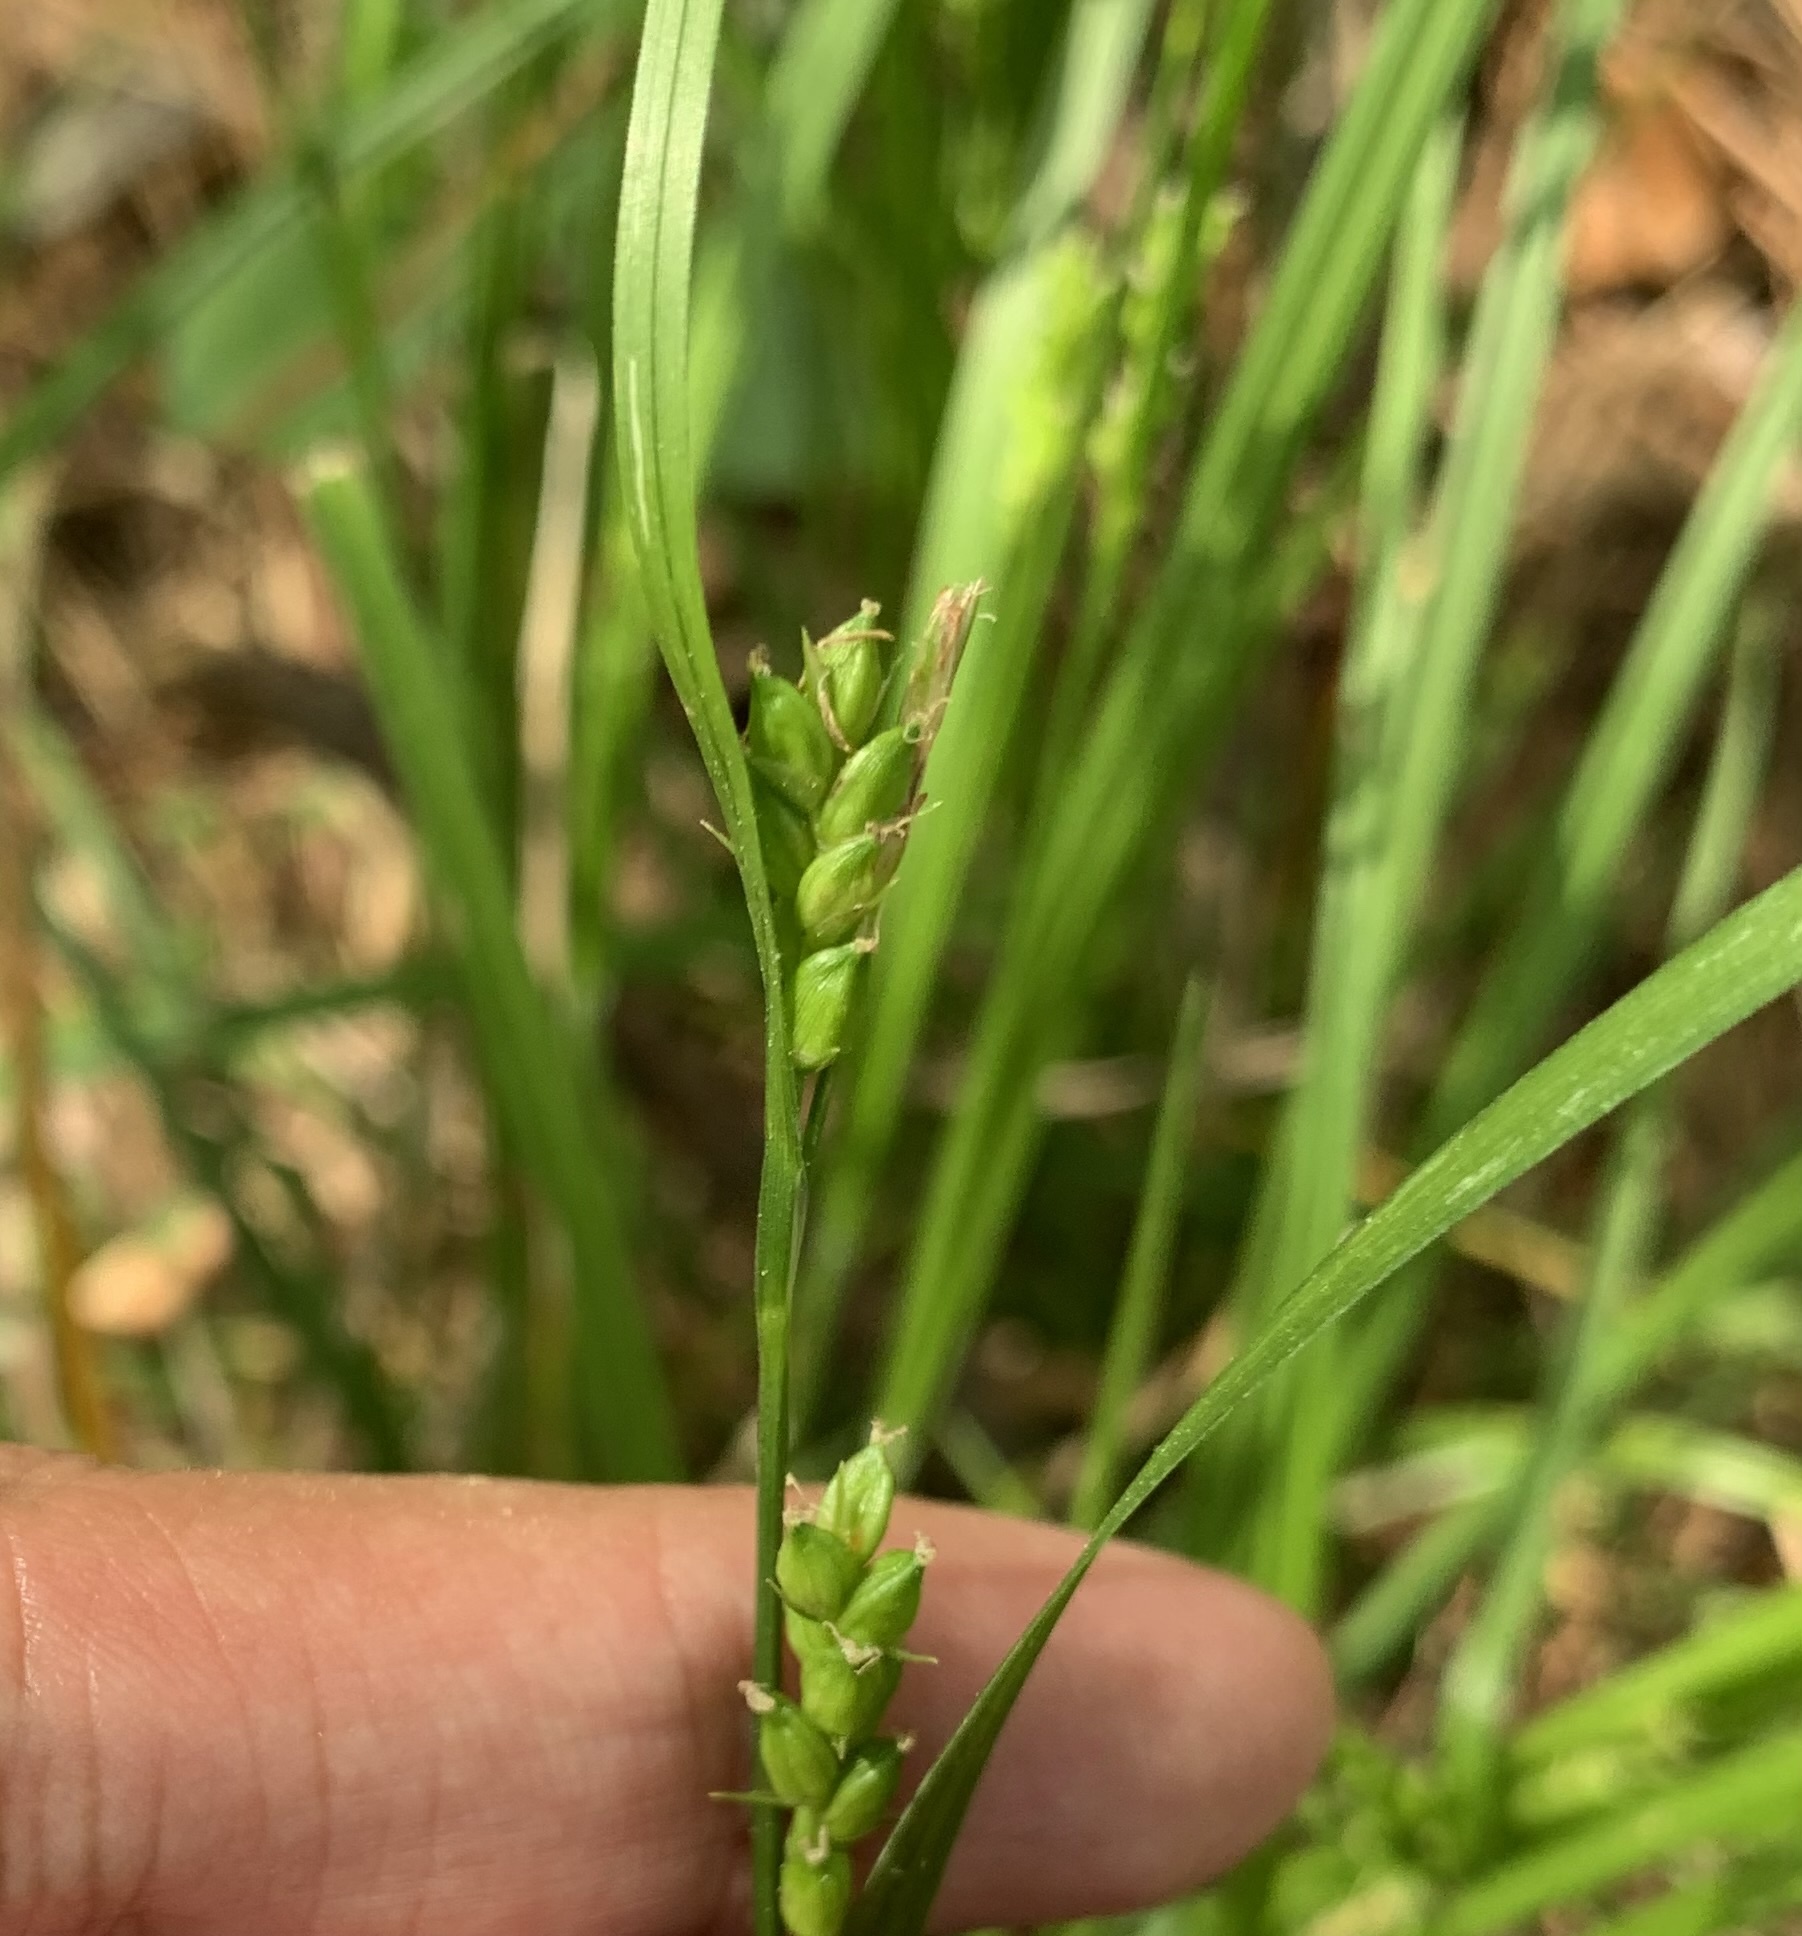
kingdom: Plantae
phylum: Tracheophyta
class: Liliopsida
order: Poales
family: Cyperaceae
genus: Carex
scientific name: Carex amphibola
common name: Amphibious sedge
